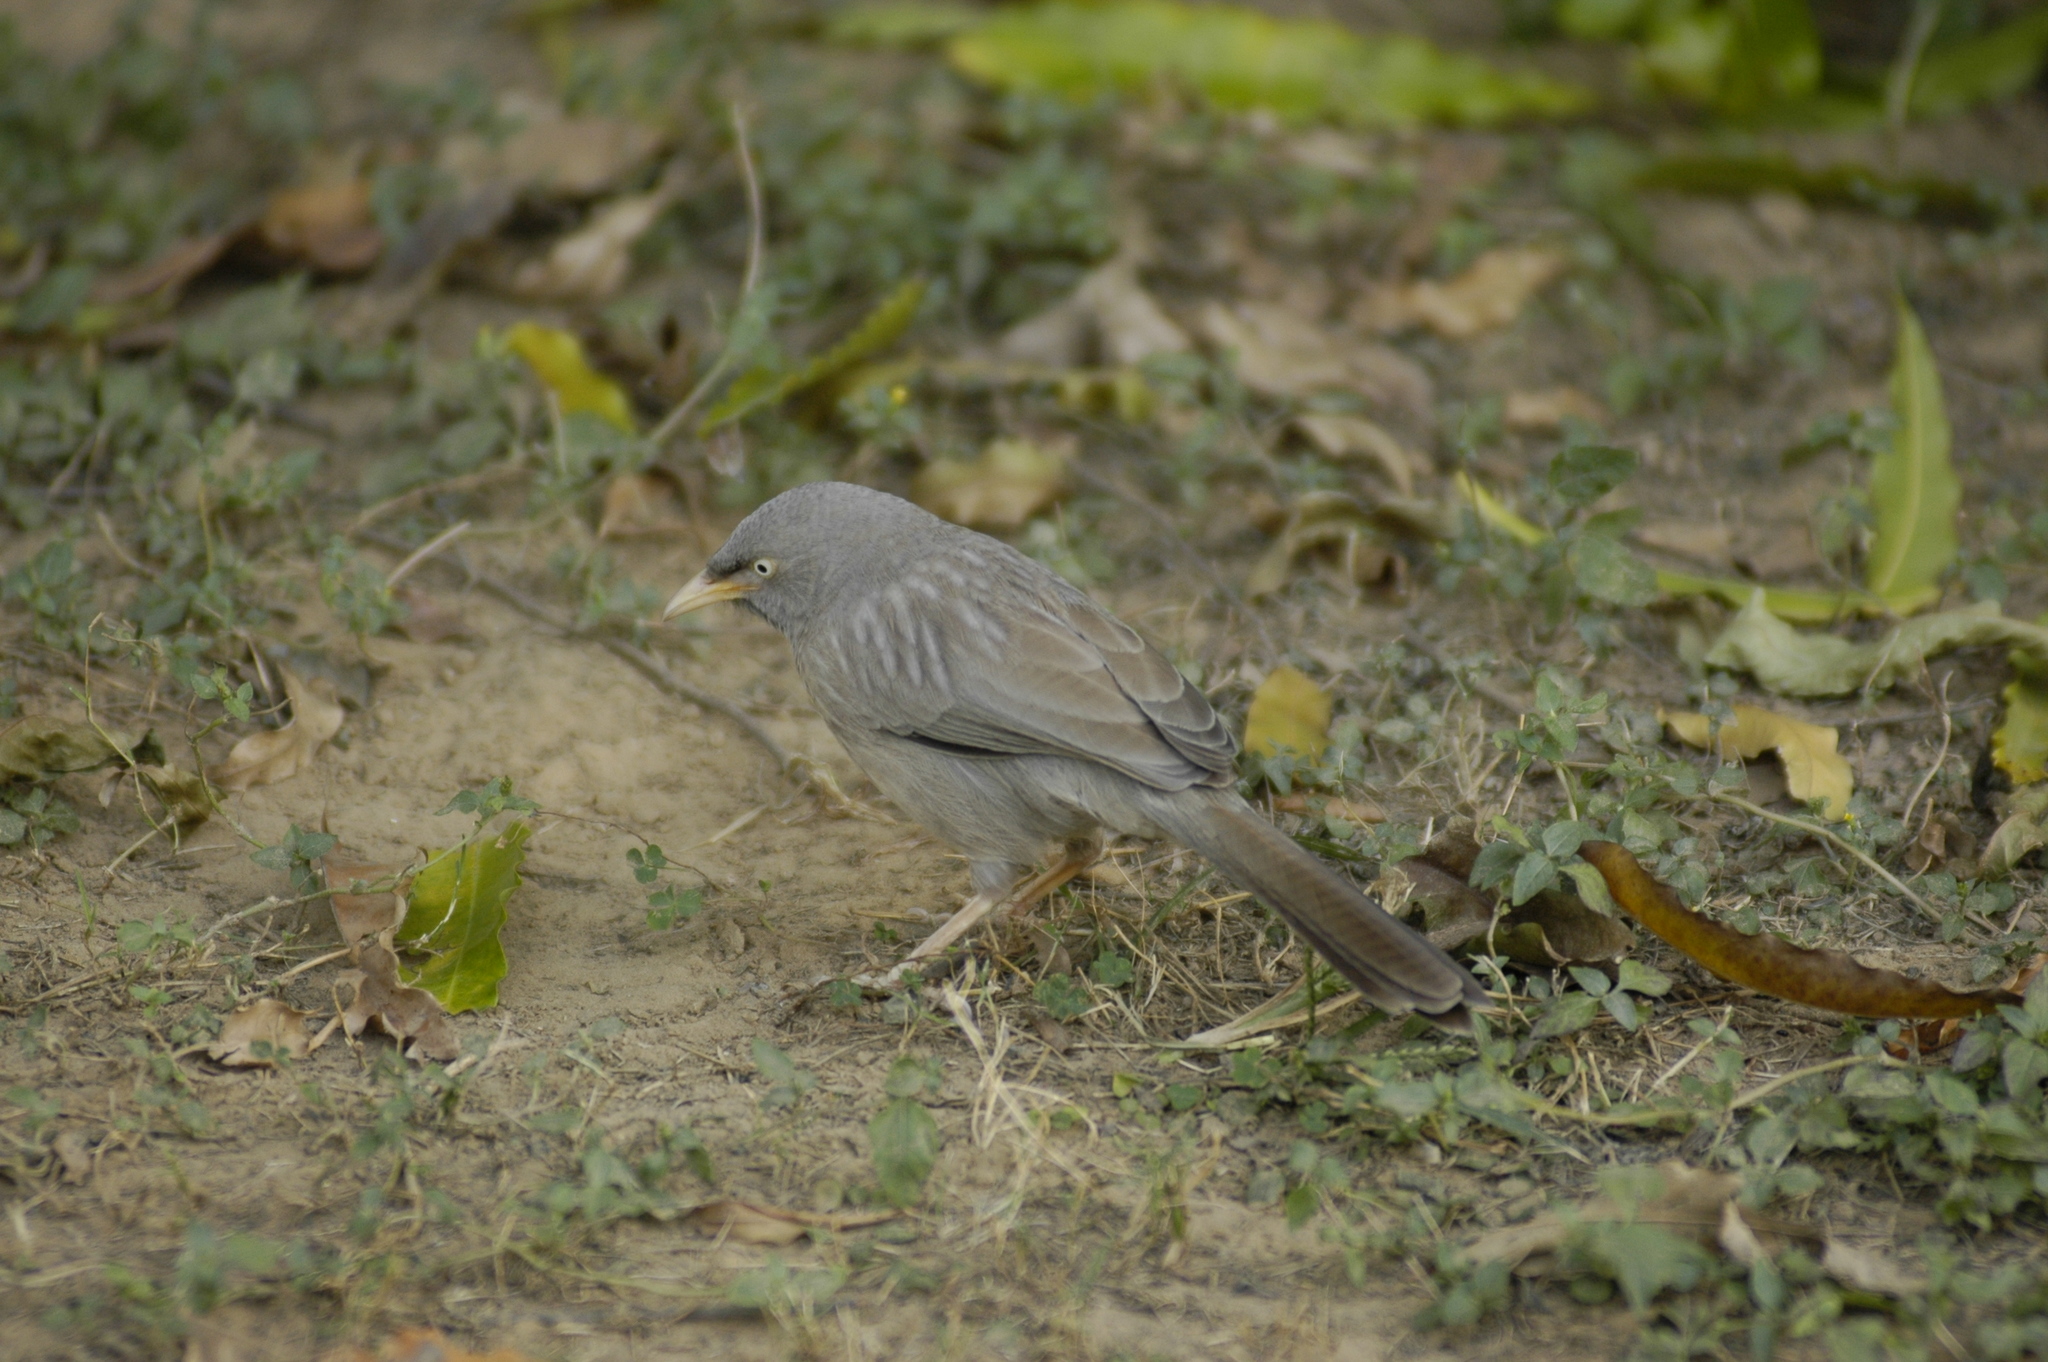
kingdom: Animalia
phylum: Chordata
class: Aves
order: Passeriformes
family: Leiothrichidae
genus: Turdoides
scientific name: Turdoides striata
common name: Jungle babbler
